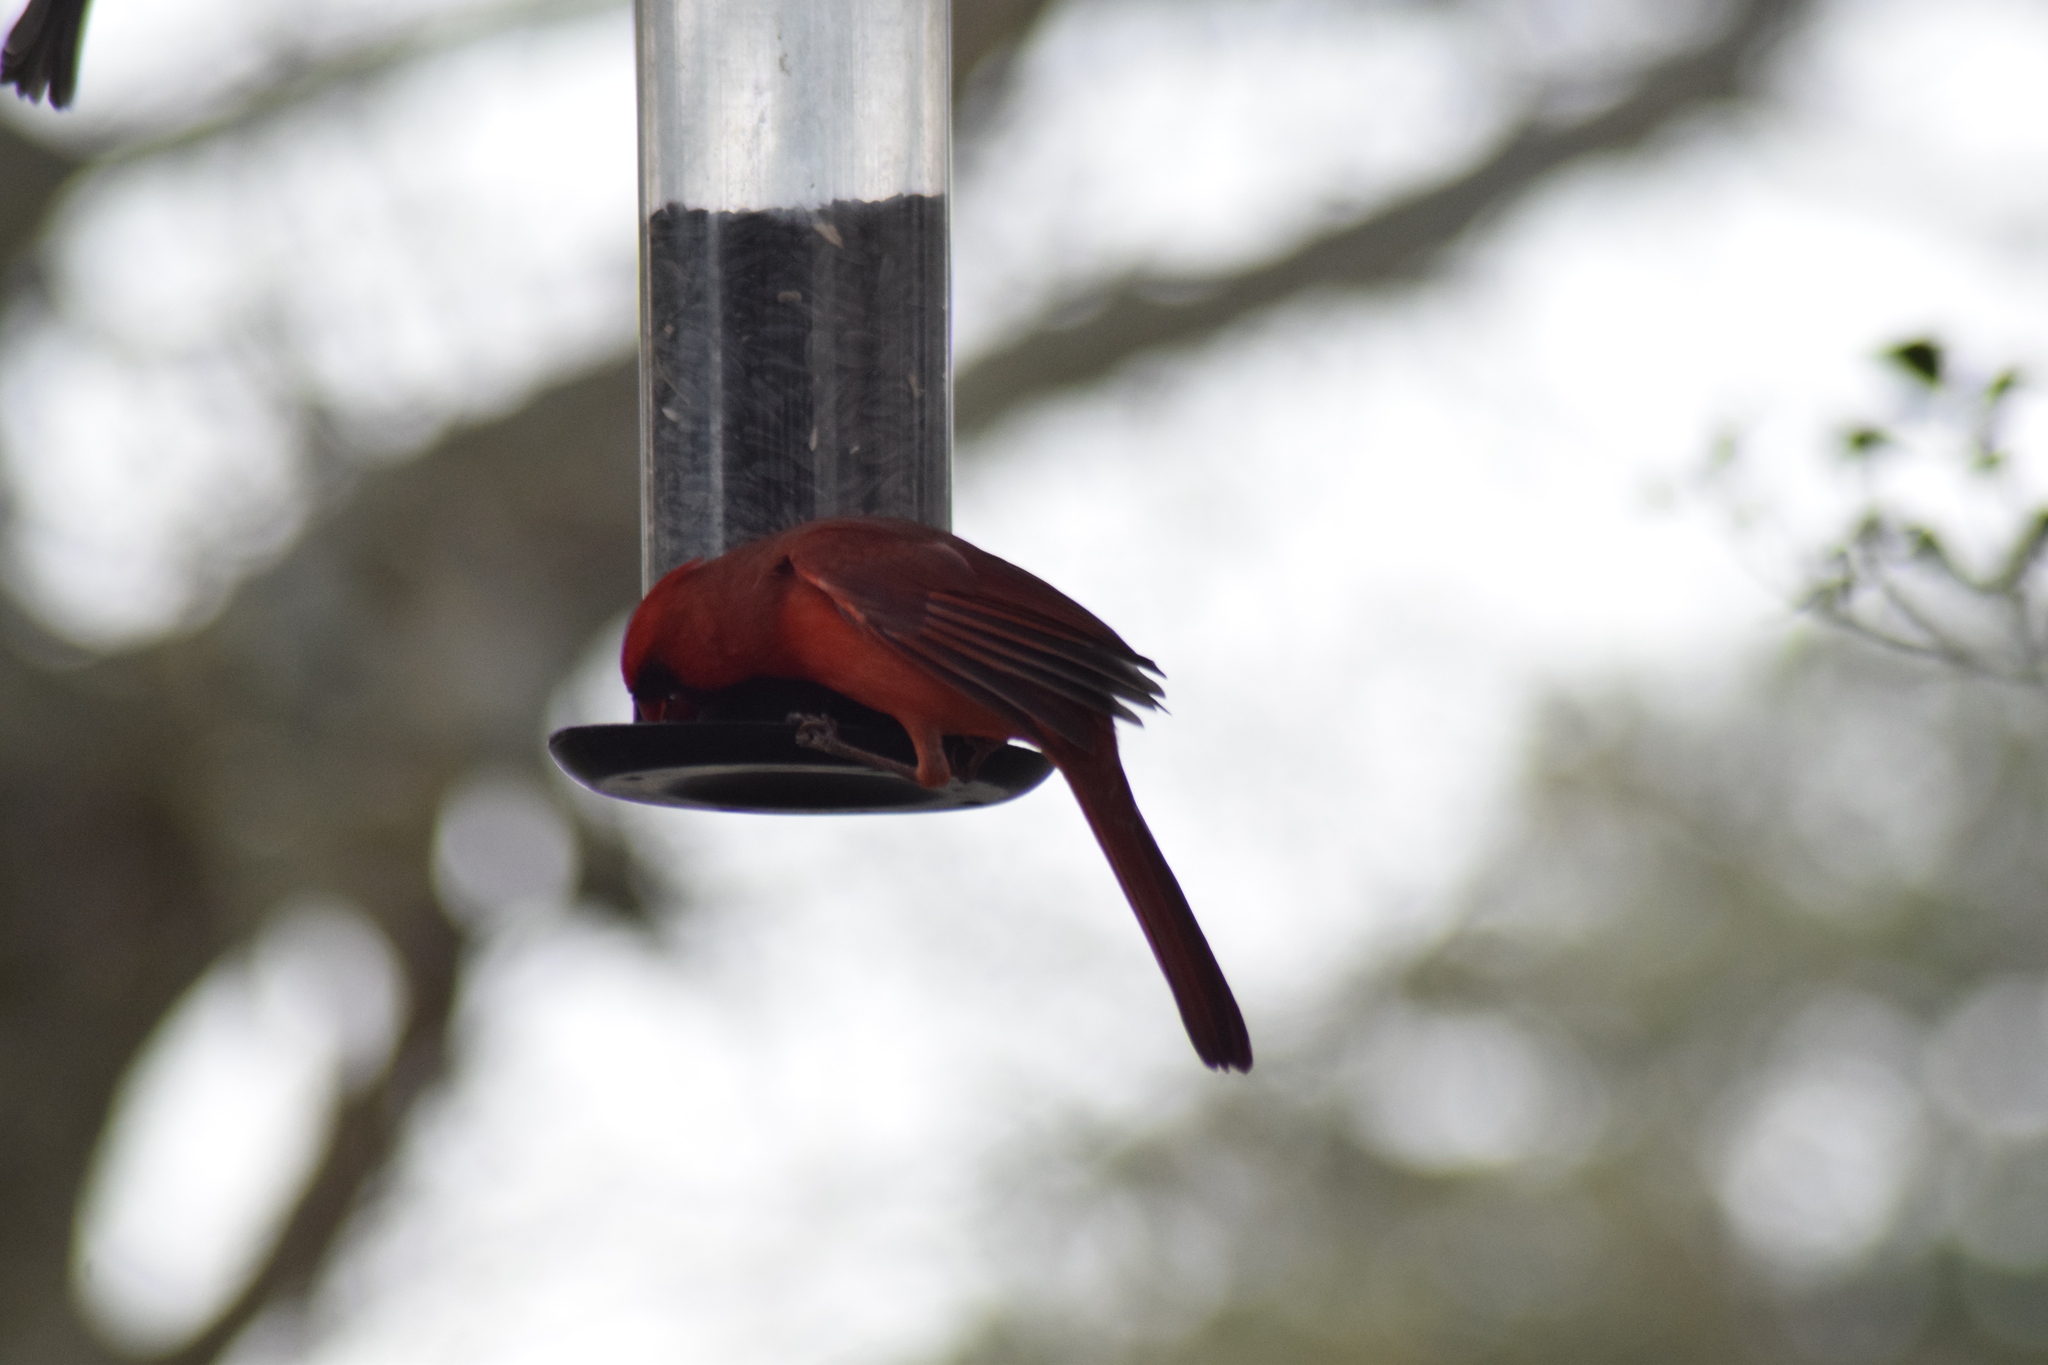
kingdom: Animalia
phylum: Chordata
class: Aves
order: Passeriformes
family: Cardinalidae
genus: Cardinalis
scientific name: Cardinalis cardinalis
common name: Northern cardinal
